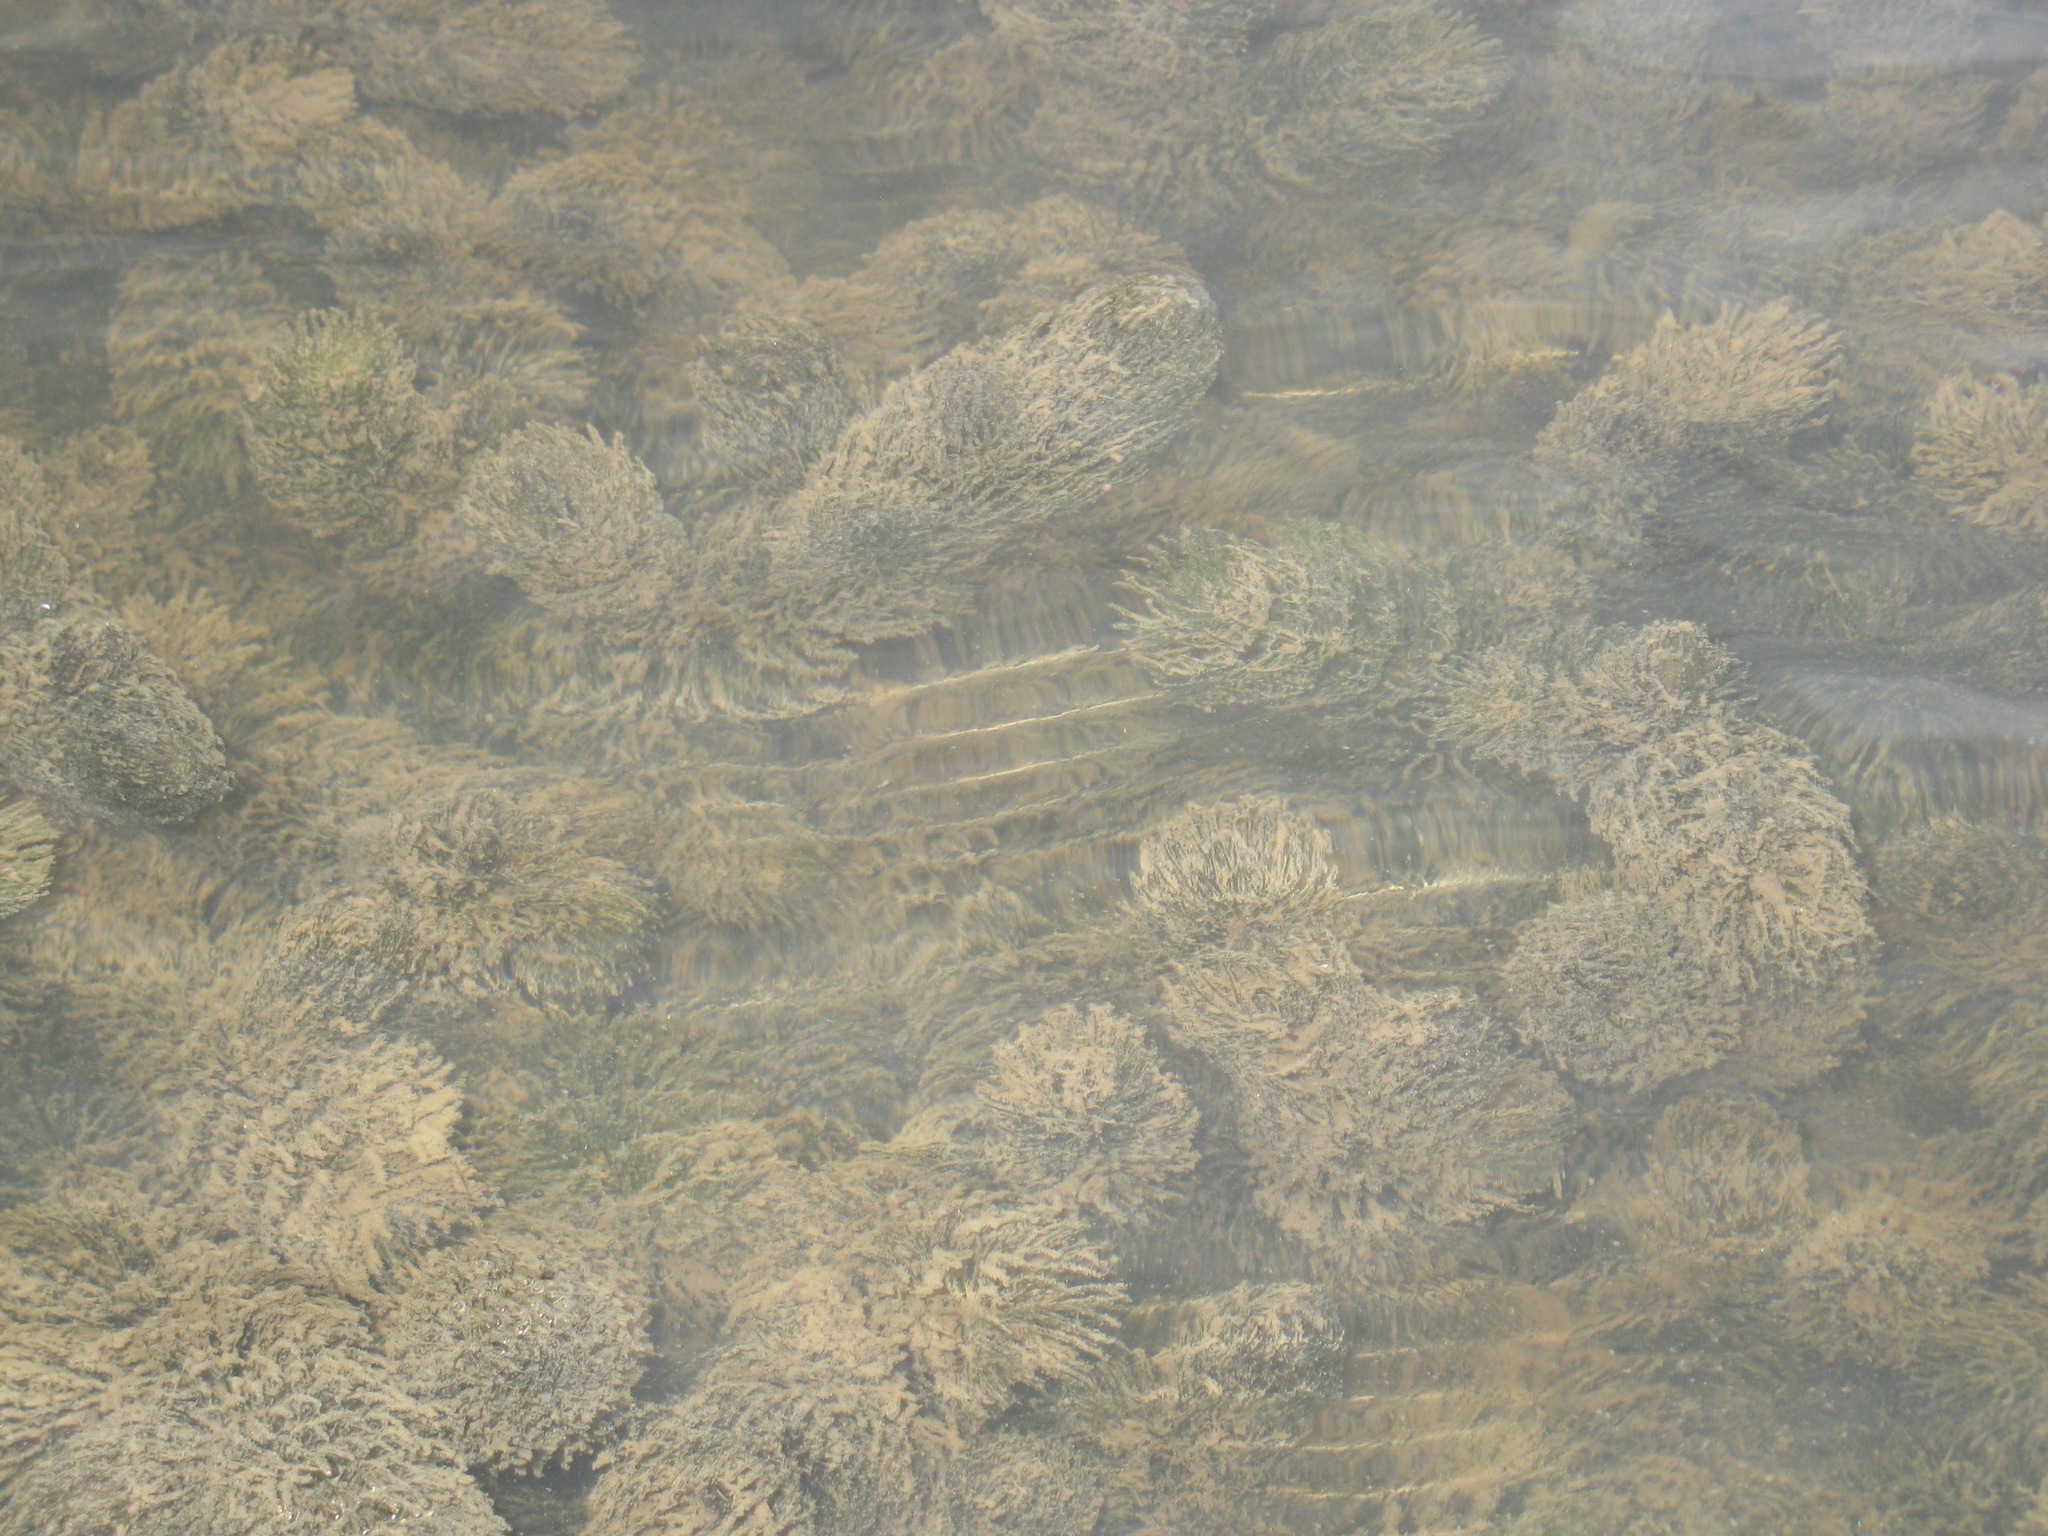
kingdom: Plantae
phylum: Tracheophyta
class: Magnoliopsida
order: Ceratophyllales
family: Ceratophyllaceae
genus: Ceratophyllum
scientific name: Ceratophyllum demersum
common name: Rigid hornwort
